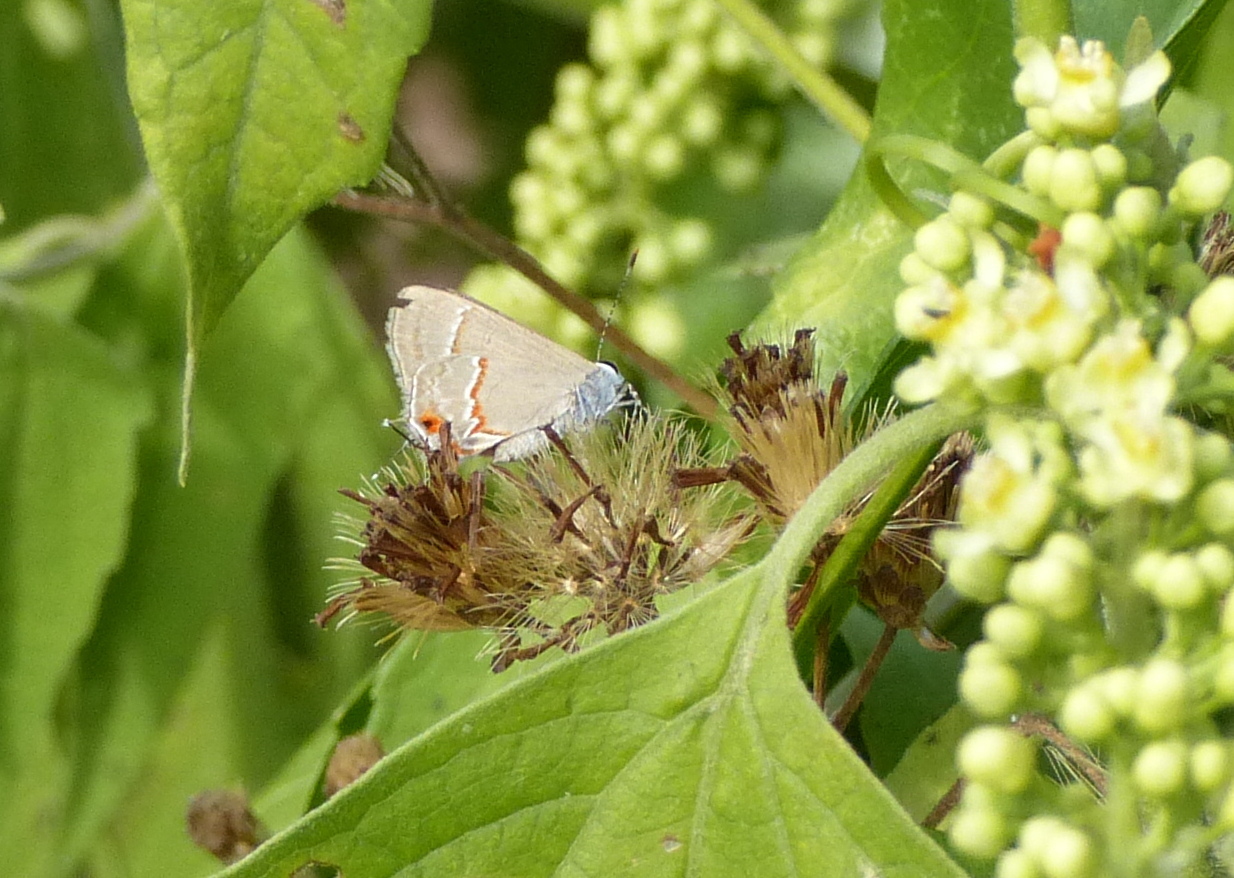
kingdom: Animalia
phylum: Arthropoda
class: Insecta
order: Lepidoptera
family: Lycaenidae
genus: Electrostrymon
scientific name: Electrostrymon endymion
